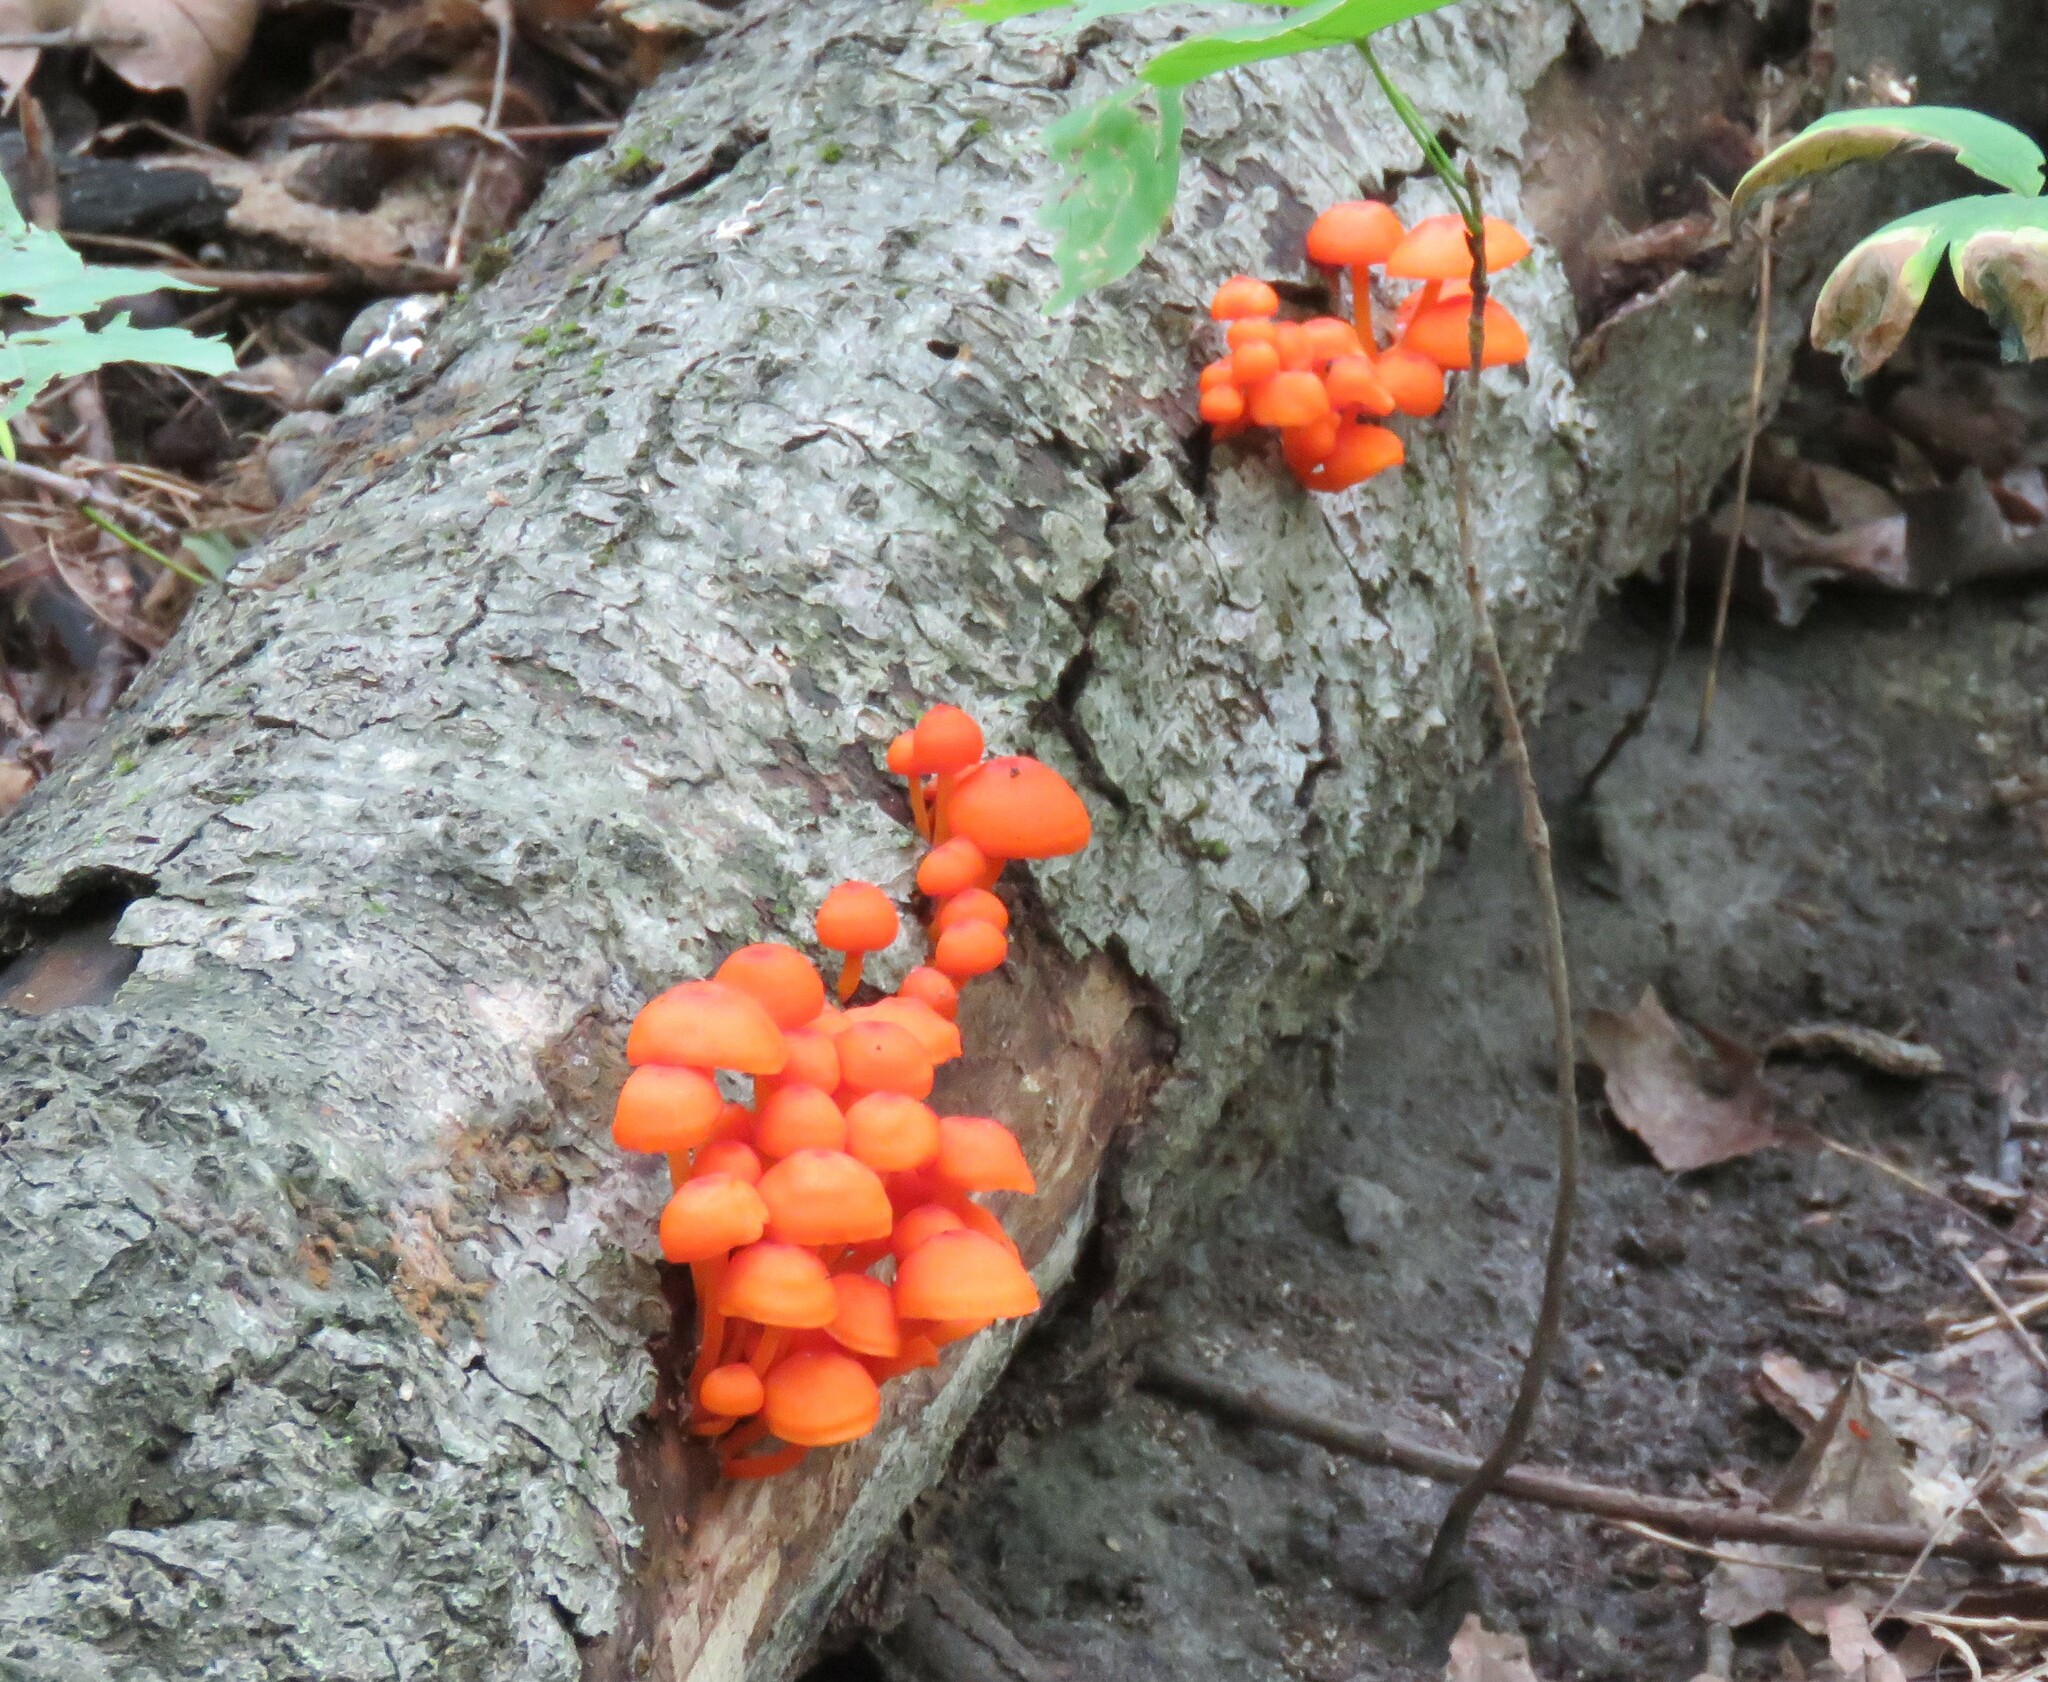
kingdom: Fungi
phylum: Basidiomycota
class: Agaricomycetes
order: Agaricales
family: Mycenaceae
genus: Mycena
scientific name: Mycena leaiana
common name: Orange mycena
